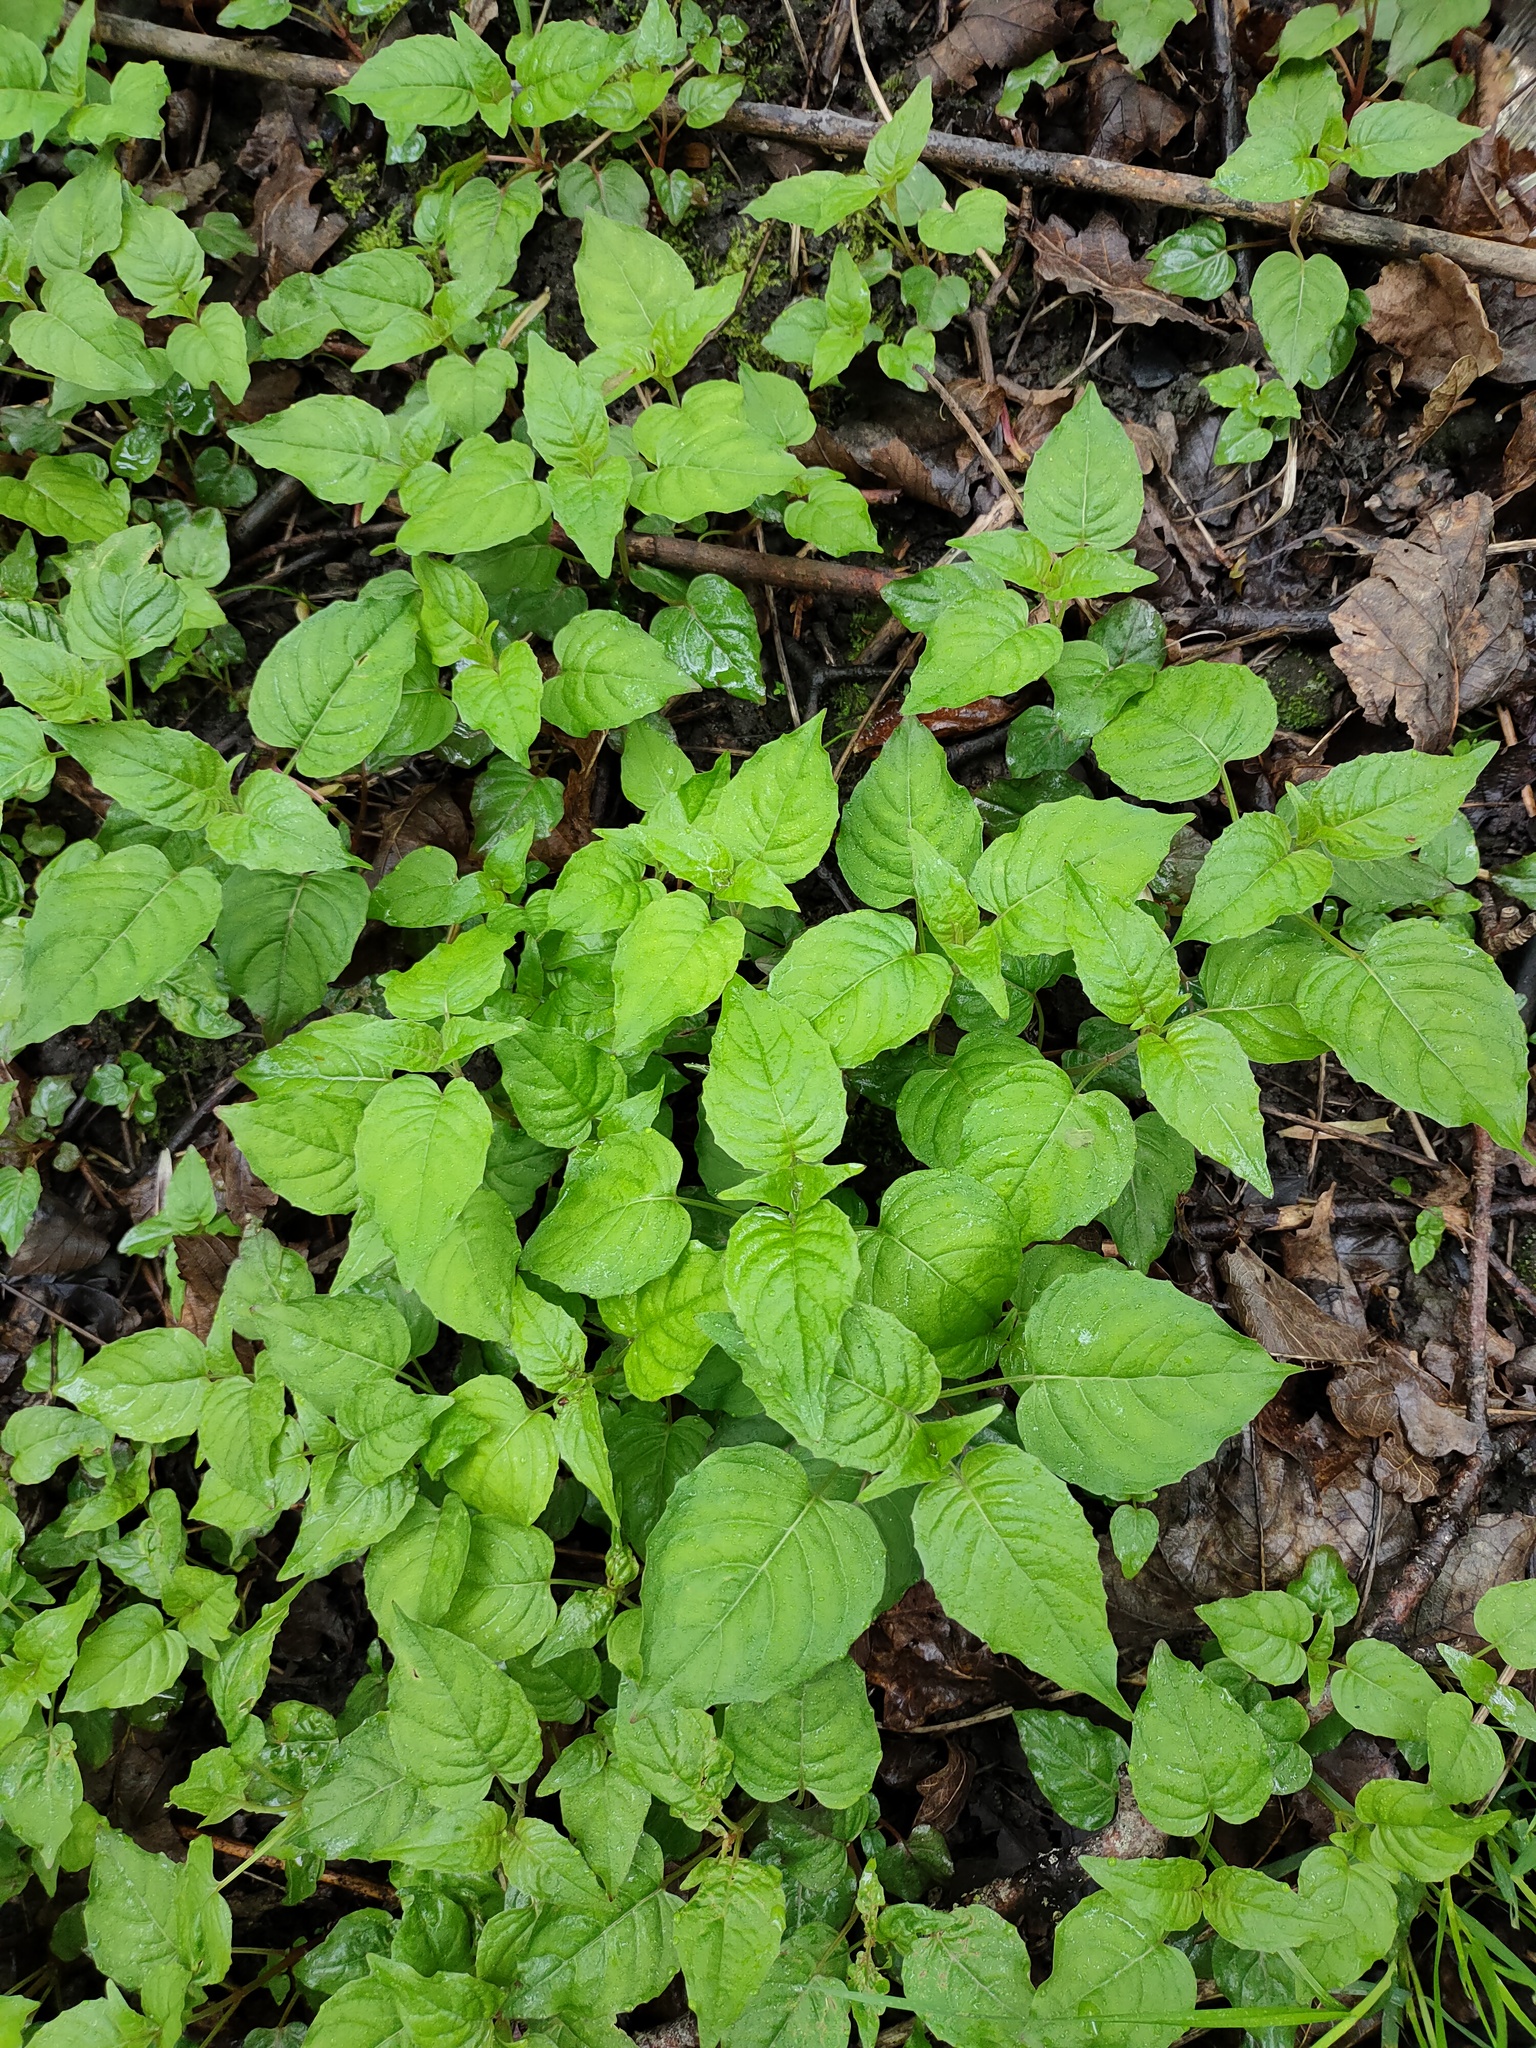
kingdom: Plantae
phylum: Tracheophyta
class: Magnoliopsida
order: Myrtales
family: Onagraceae
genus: Circaea
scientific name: Circaea lutetiana
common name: Enchanter's-nightshade
